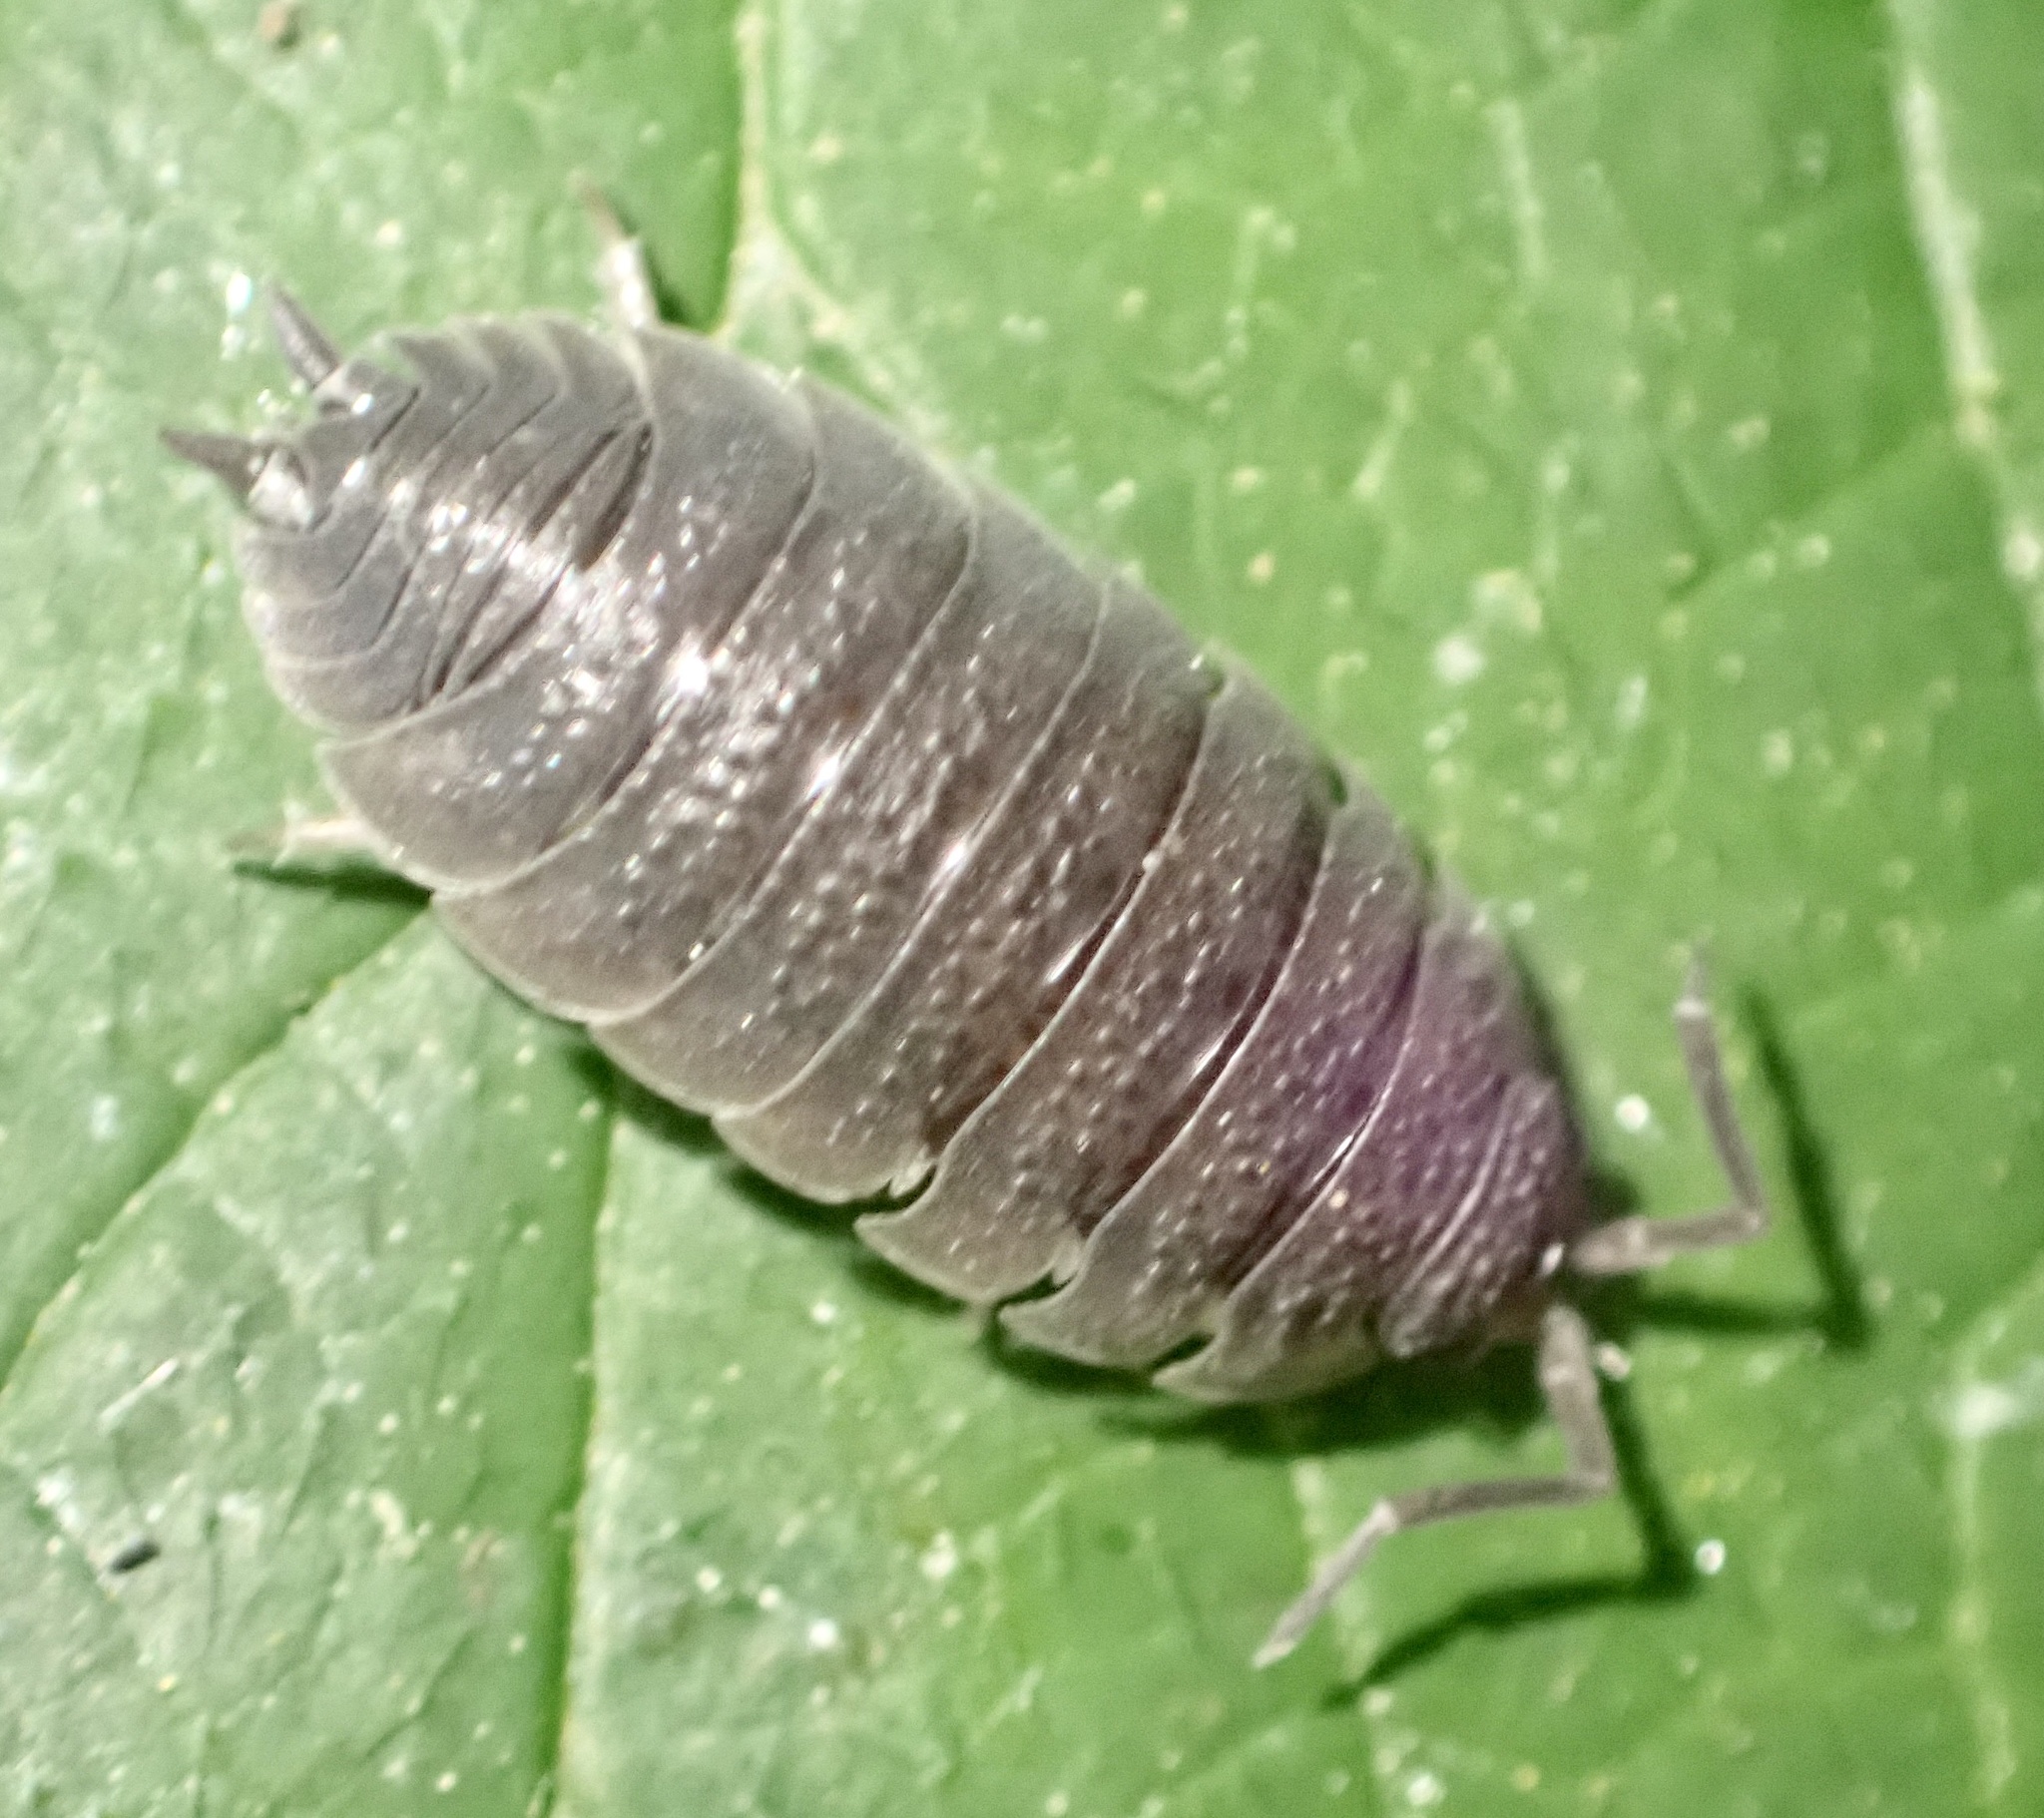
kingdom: Animalia
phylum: Arthropoda
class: Malacostraca
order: Isopoda
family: Porcellionidae
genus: Porcellio
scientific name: Porcellio scaber
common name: Common rough woodlouse
